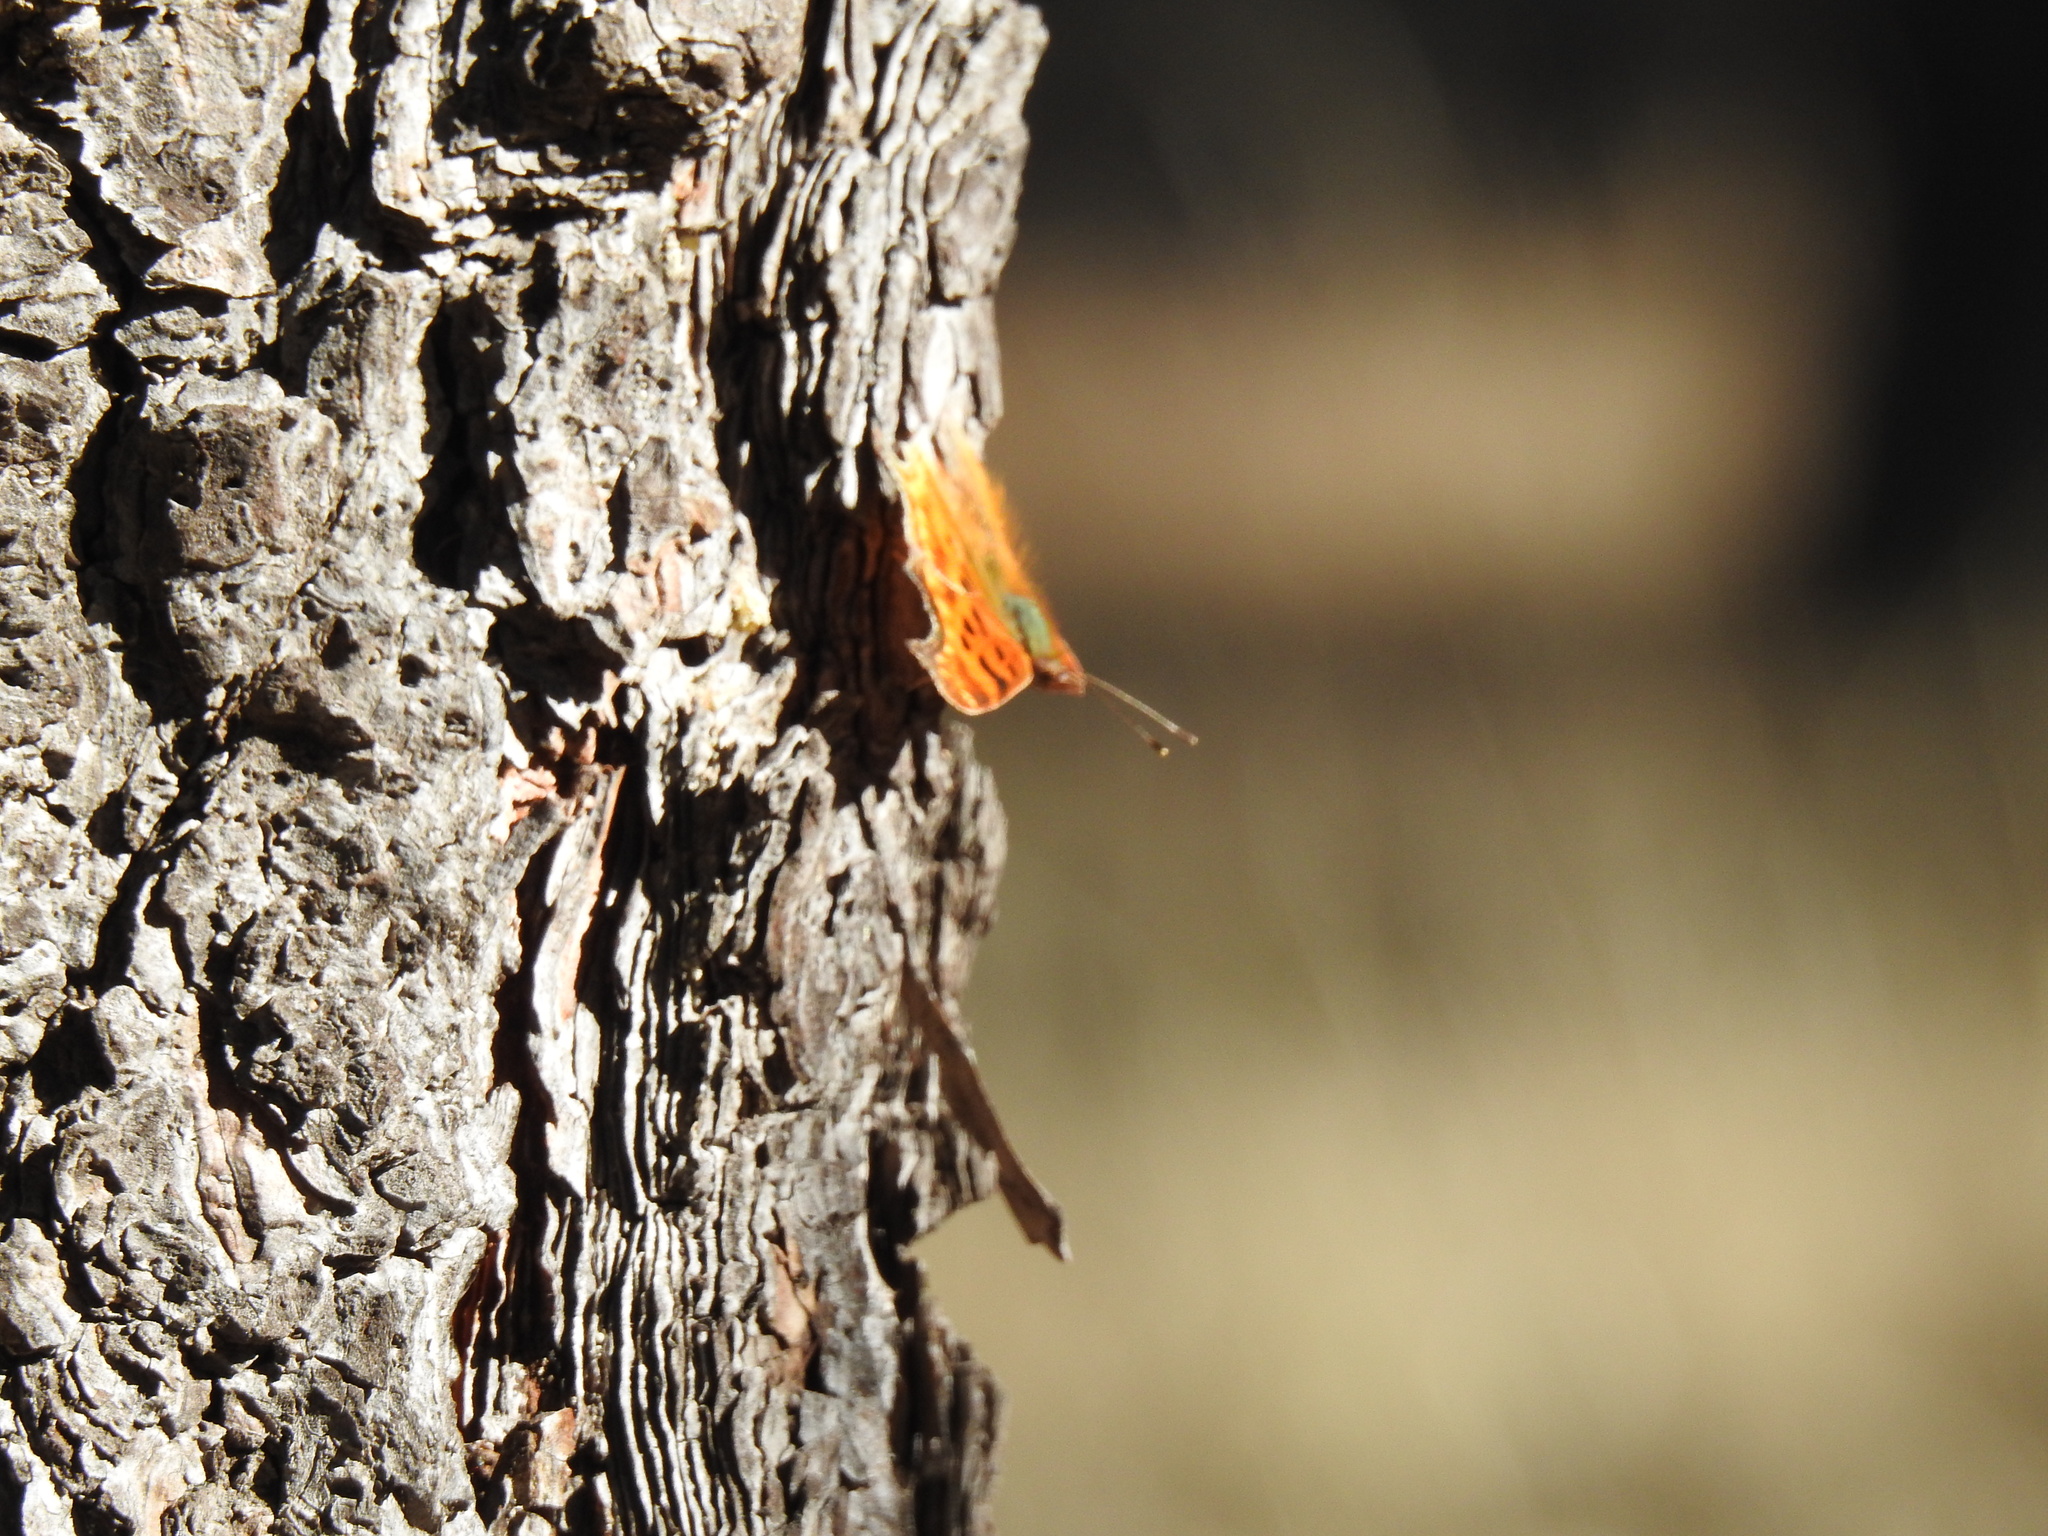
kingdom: Animalia
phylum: Arthropoda
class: Insecta
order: Lepidoptera
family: Nymphalidae
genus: Polygonia
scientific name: Polygonia satyrus
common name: Satyr angle wing
